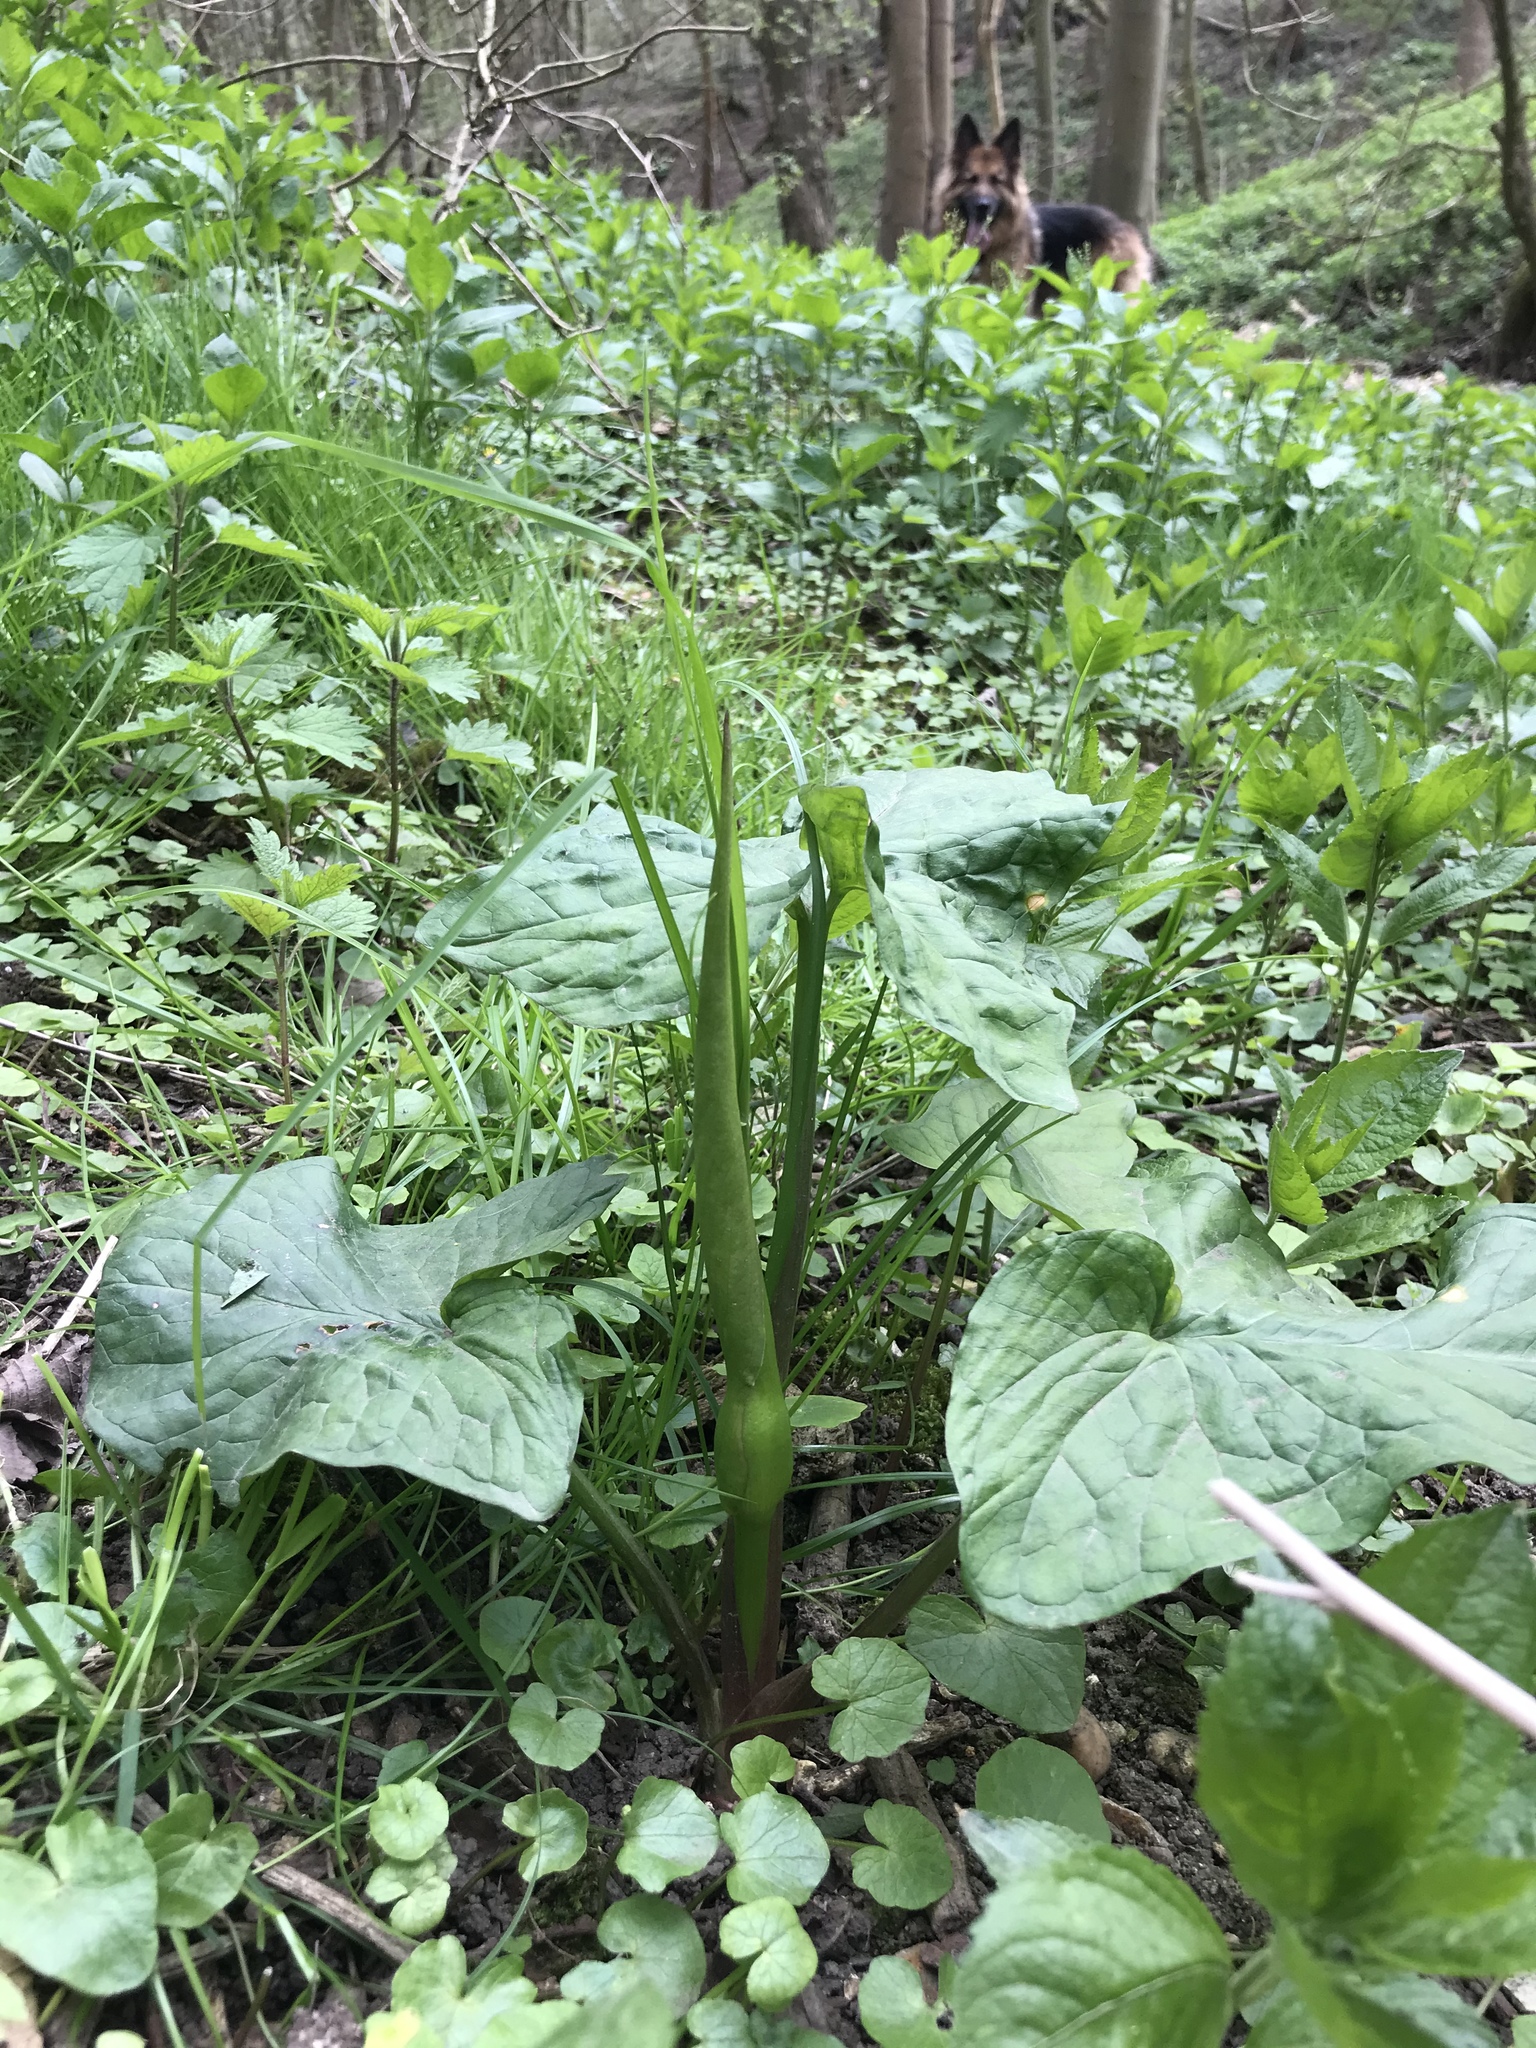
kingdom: Plantae
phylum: Tracheophyta
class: Liliopsida
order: Alismatales
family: Araceae
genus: Arum
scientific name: Arum maculatum
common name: Lords-and-ladies
